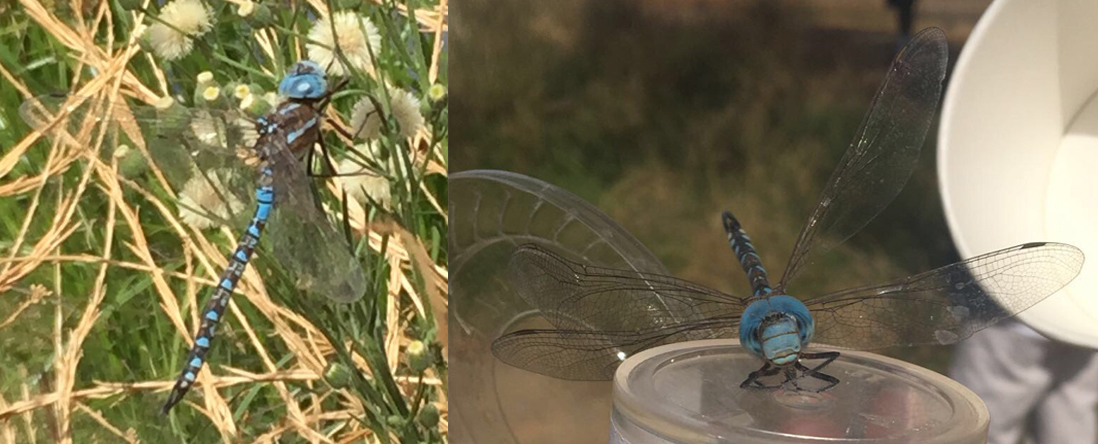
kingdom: Animalia
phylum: Arthropoda
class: Insecta
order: Odonata
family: Aeshnidae
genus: Rhionaeschna
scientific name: Rhionaeschna multicolor
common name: Blue-eyed darner
